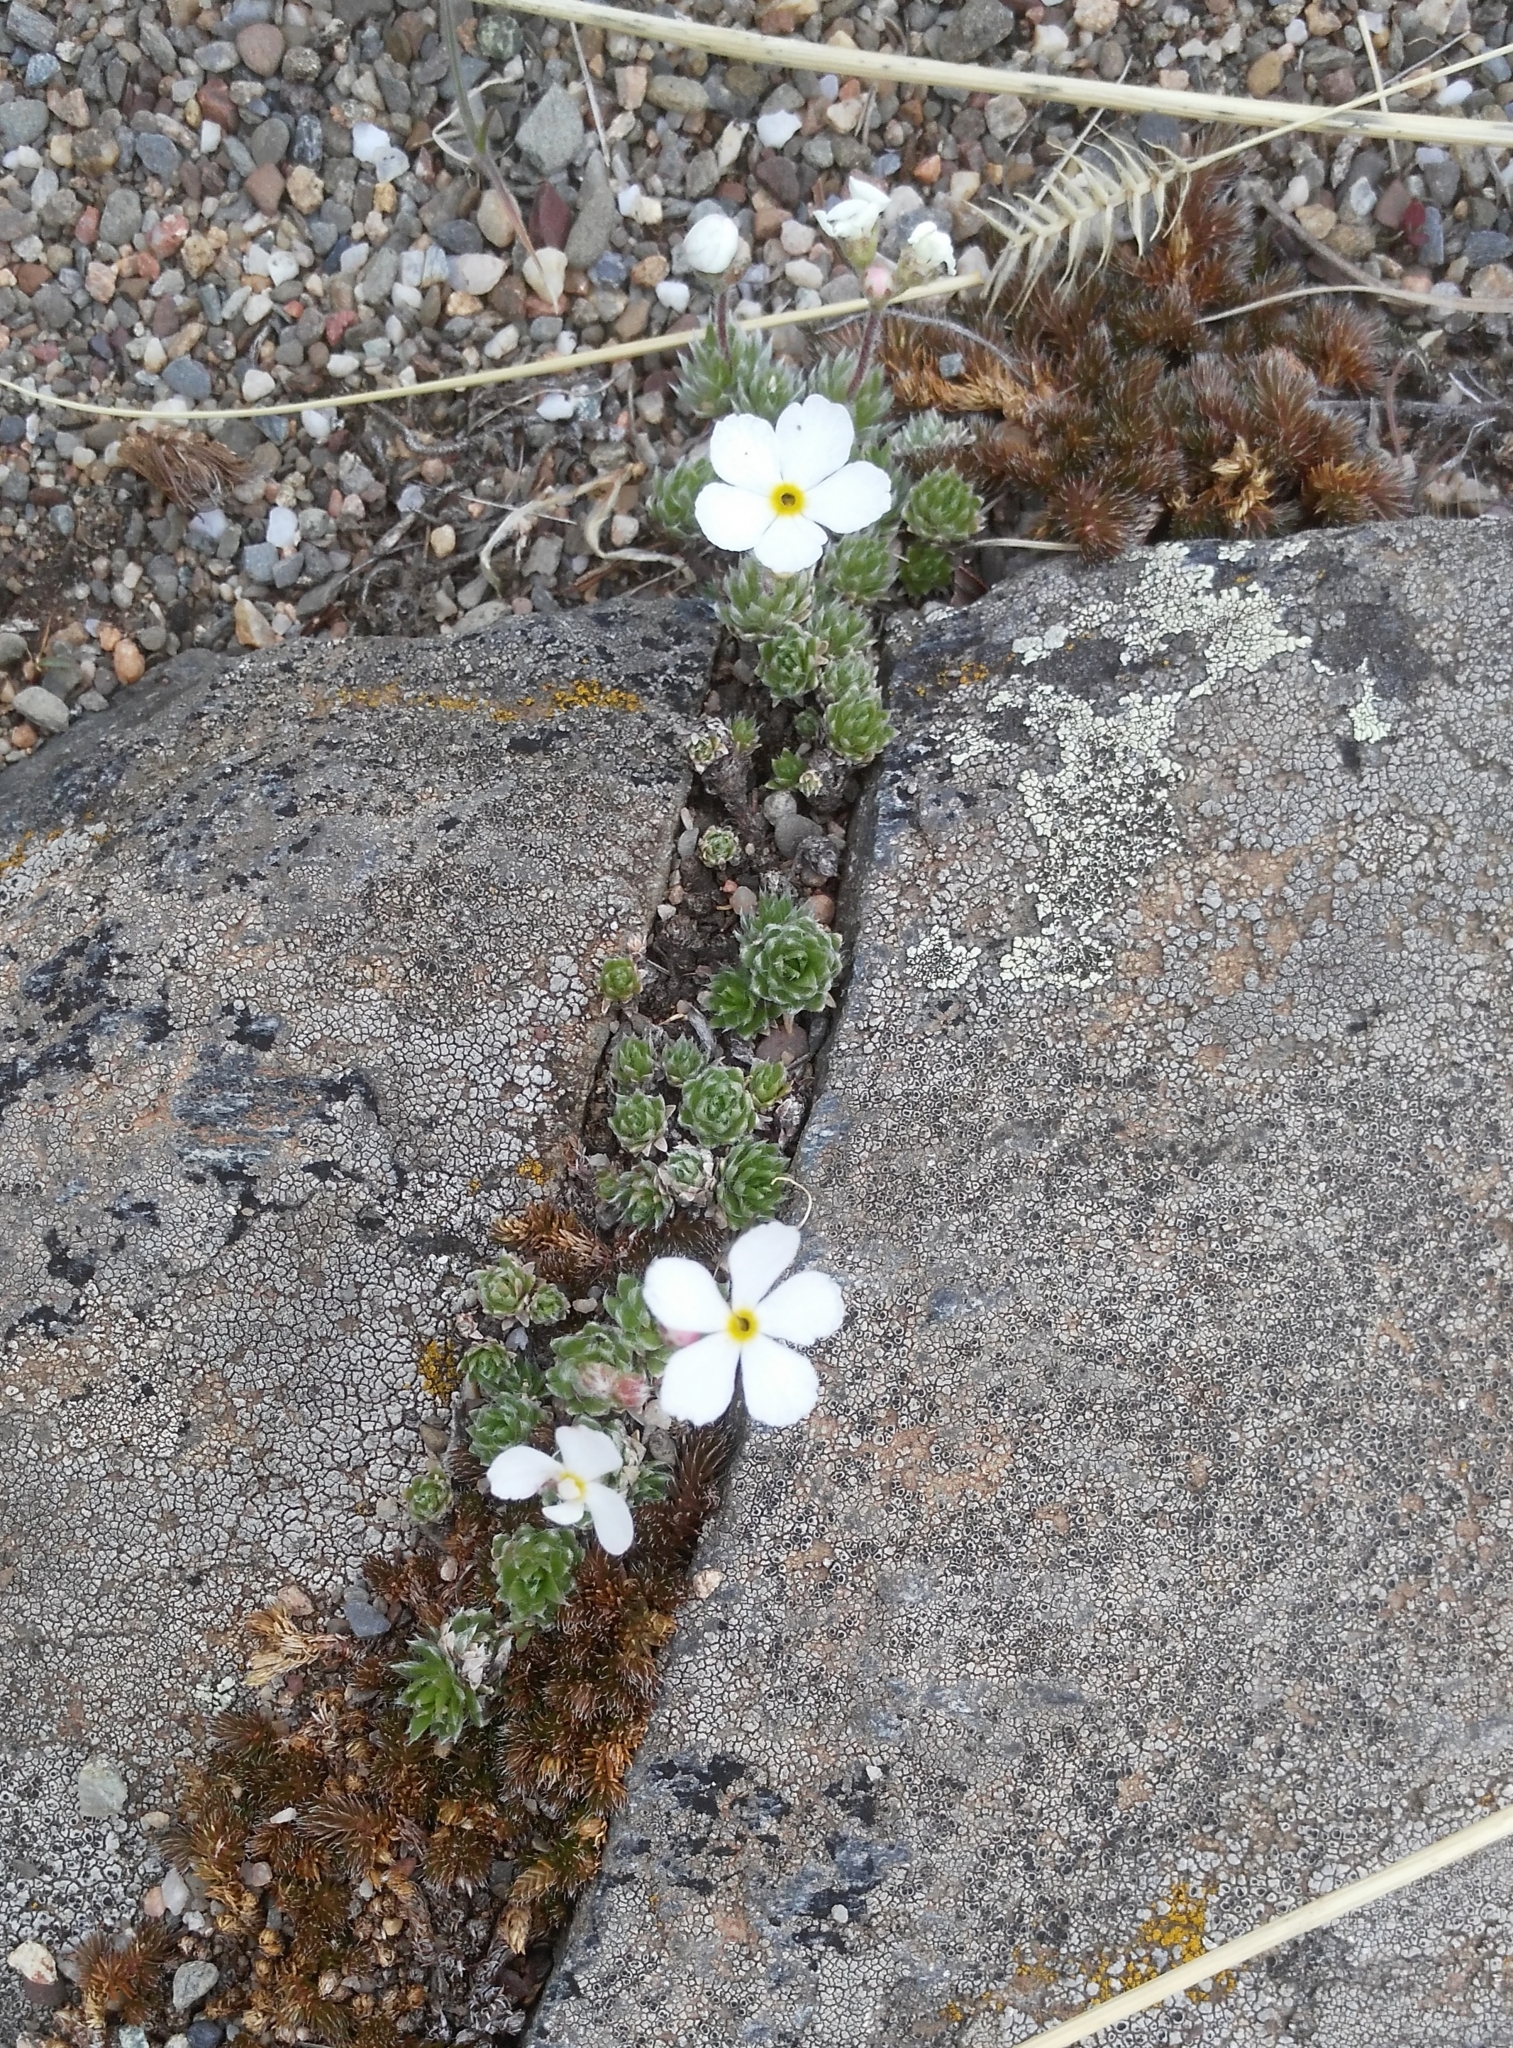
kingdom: Plantae
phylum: Tracheophyta
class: Magnoliopsida
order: Ericales
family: Primulaceae
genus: Androsace
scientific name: Androsace incana
